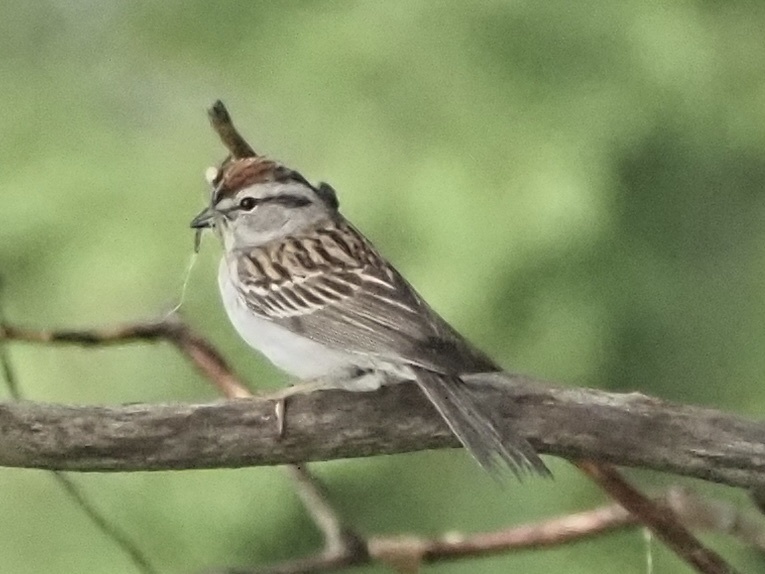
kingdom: Animalia
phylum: Chordata
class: Aves
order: Passeriformes
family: Passerellidae
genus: Spizella
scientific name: Spizella passerina
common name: Chipping sparrow
